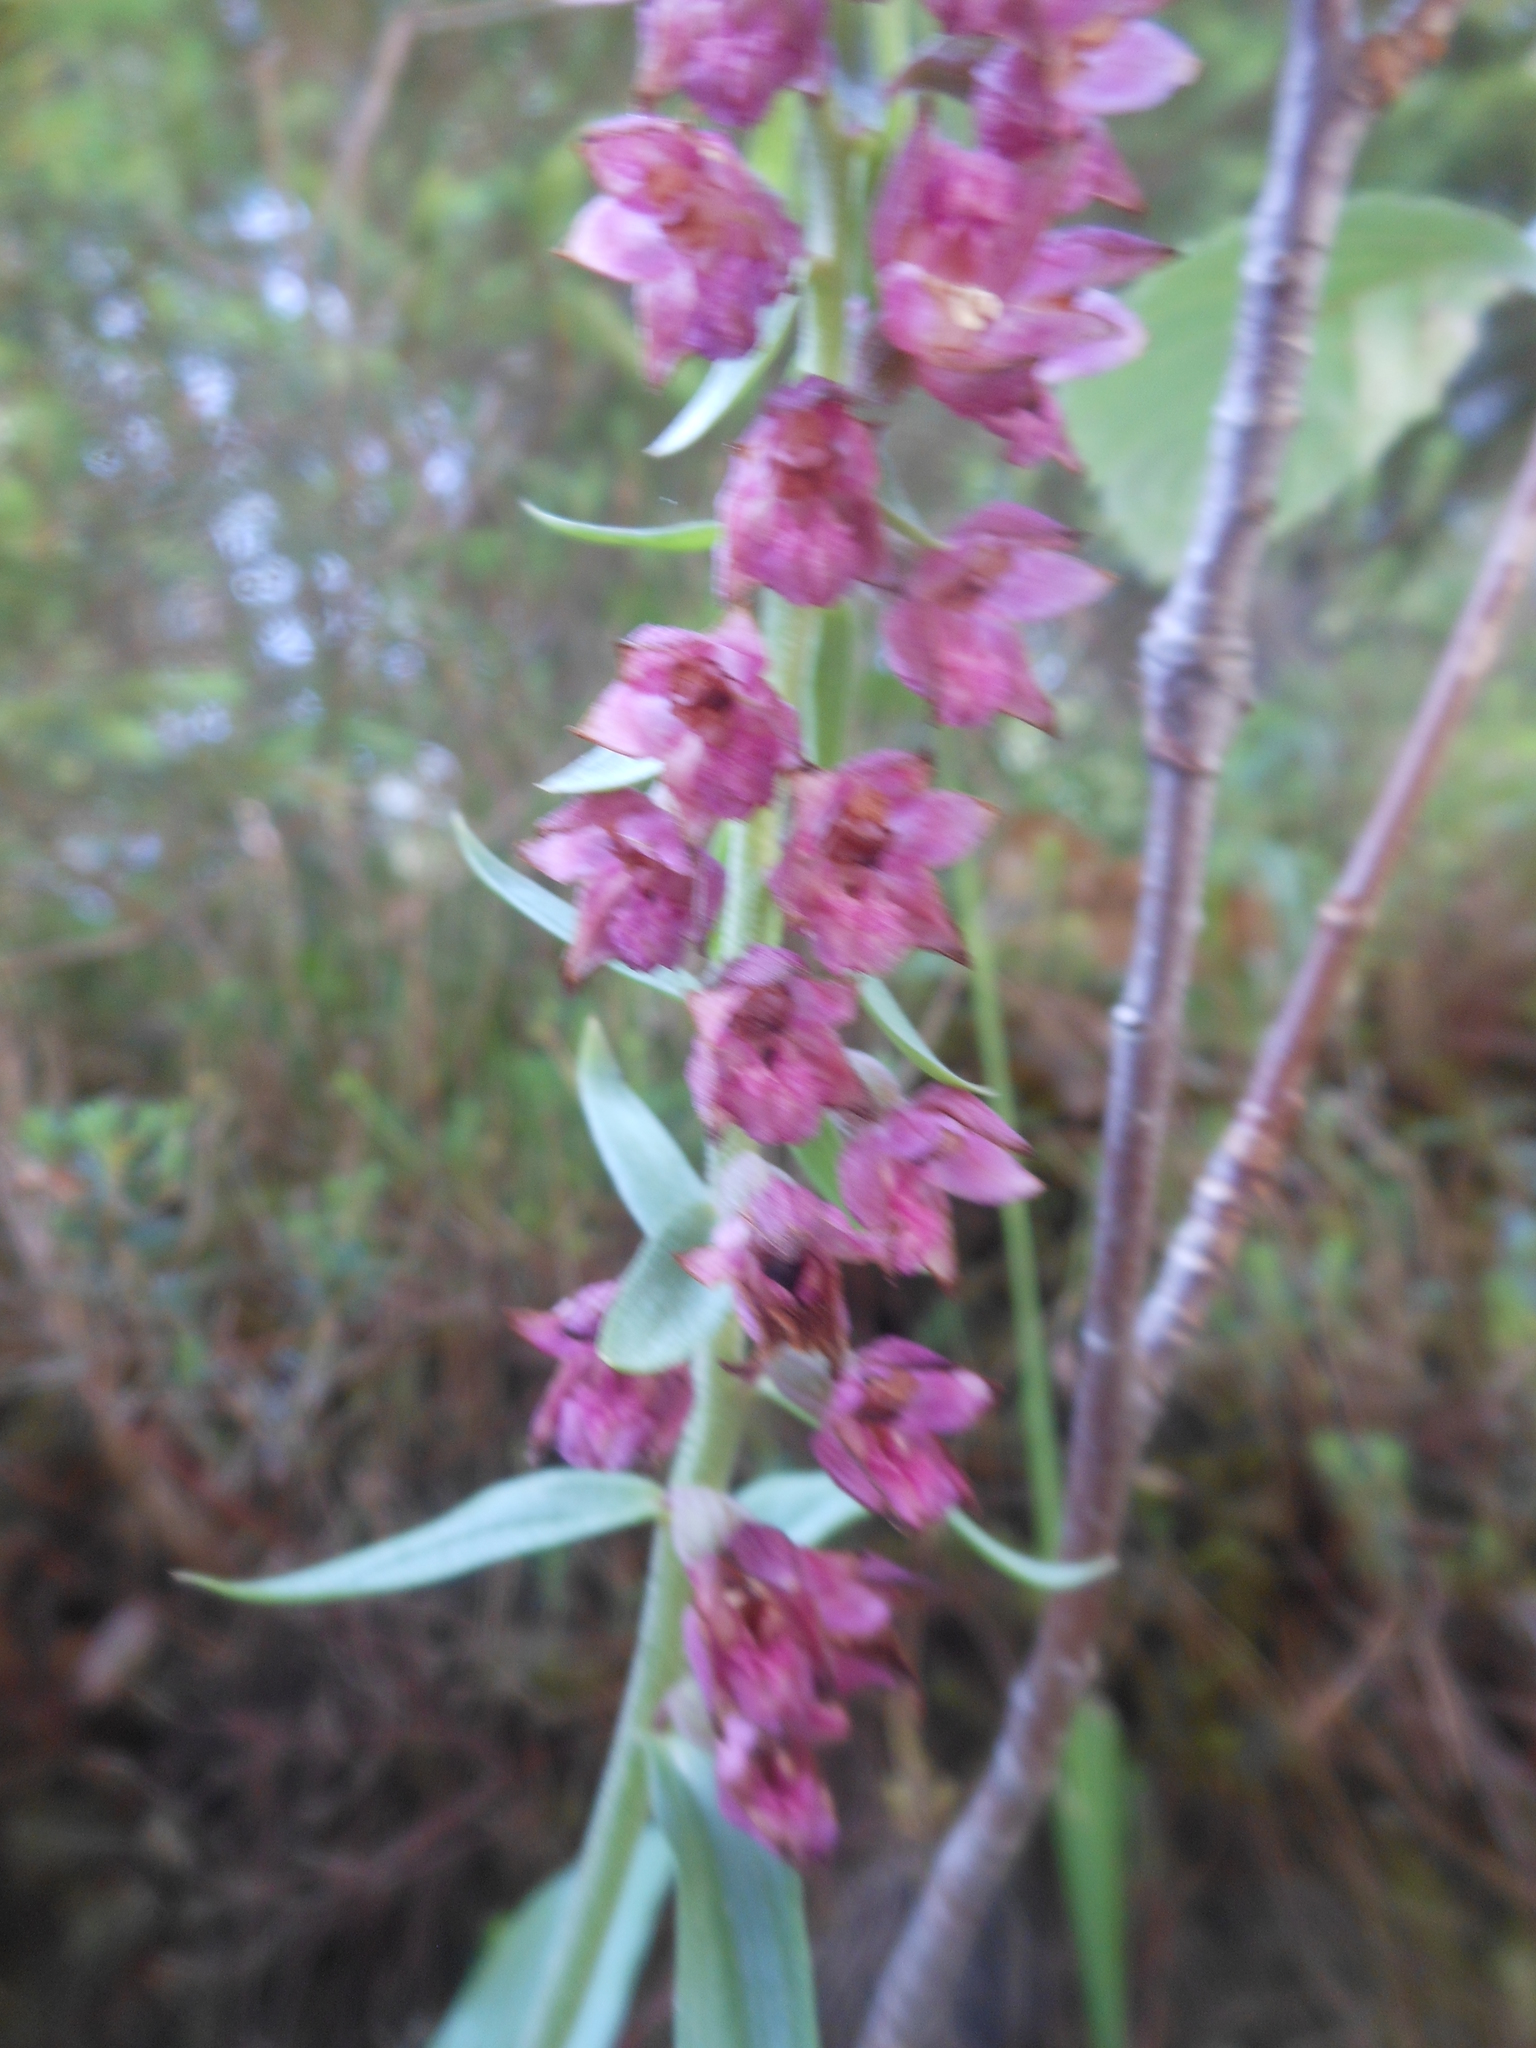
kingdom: Plantae
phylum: Tracheophyta
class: Liliopsida
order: Asparagales
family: Orchidaceae
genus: Epipactis
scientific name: Epipactis atrorubens
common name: Dark-red helleborine
